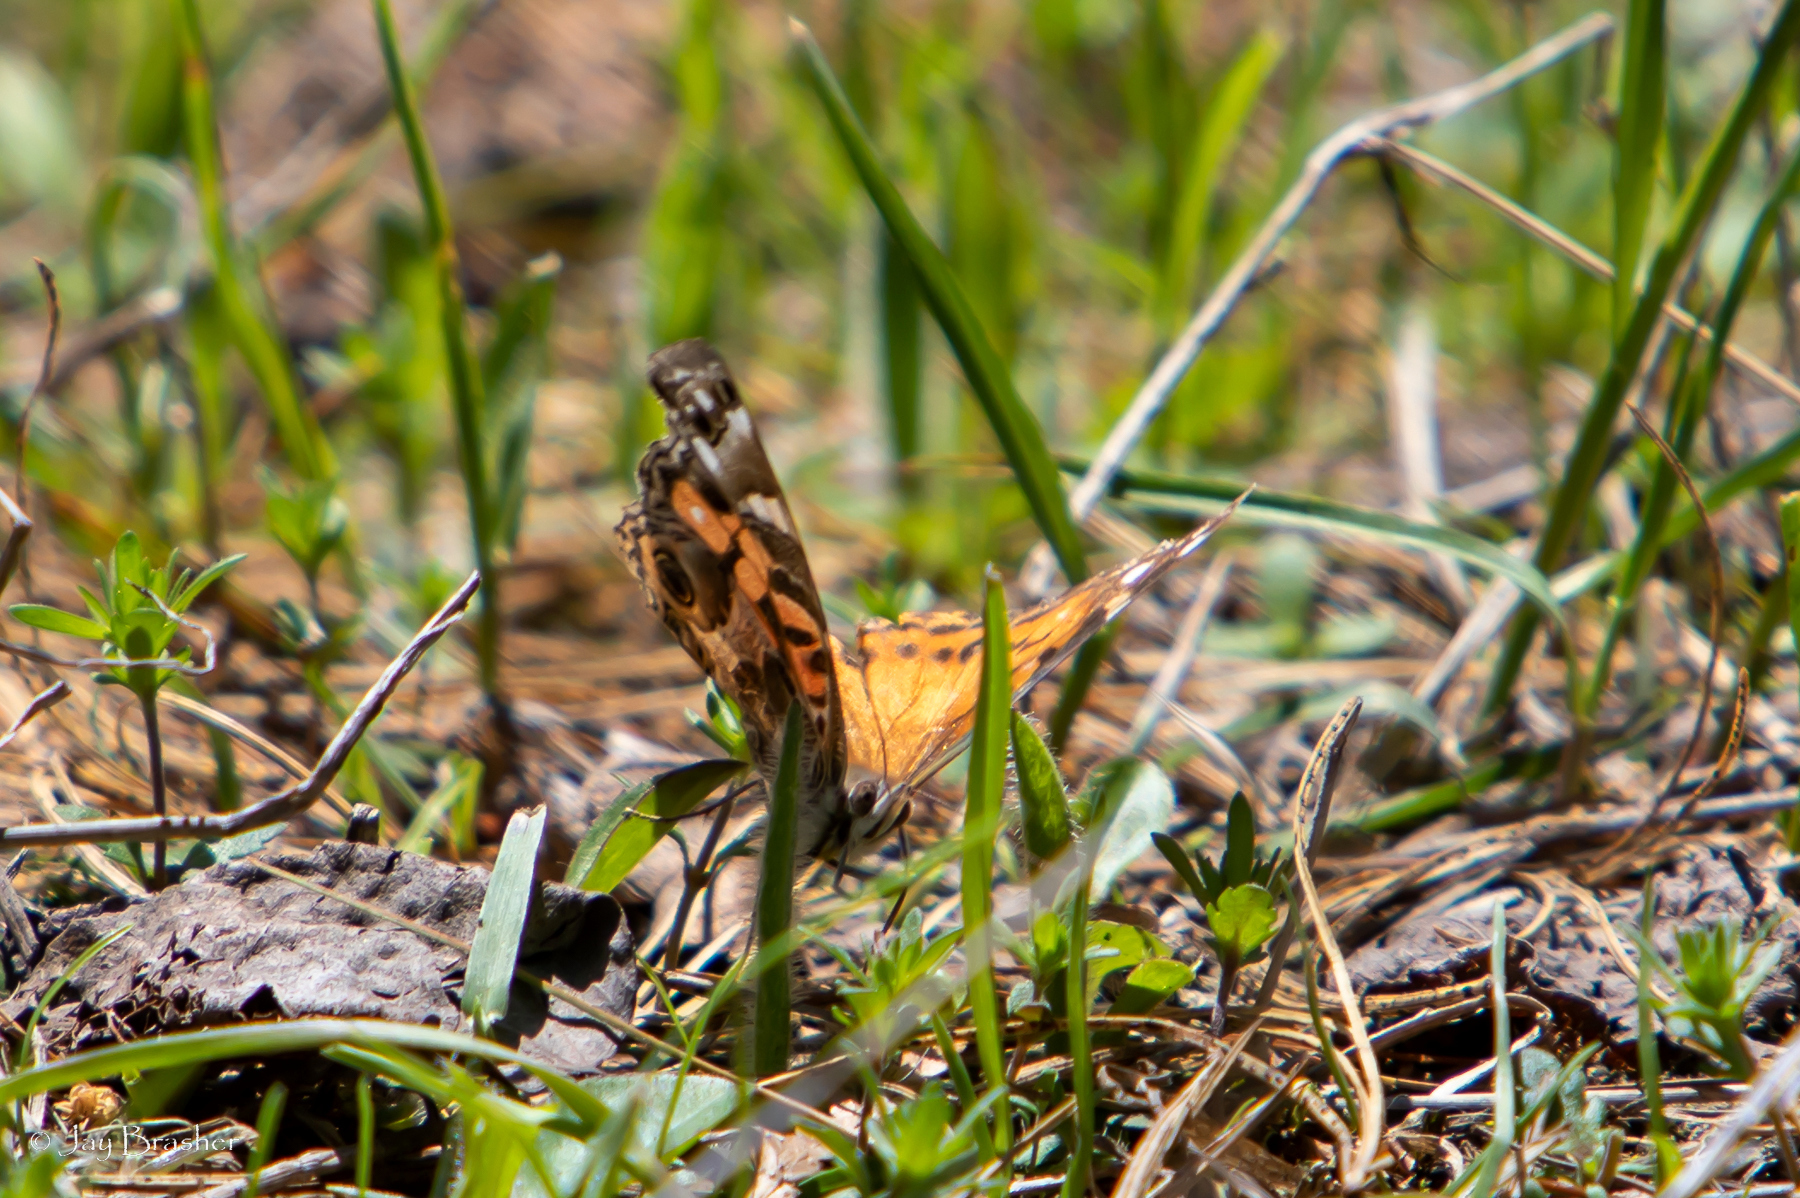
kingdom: Animalia
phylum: Arthropoda
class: Insecta
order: Lepidoptera
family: Nymphalidae
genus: Vanessa
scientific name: Vanessa virginiensis
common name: American lady
